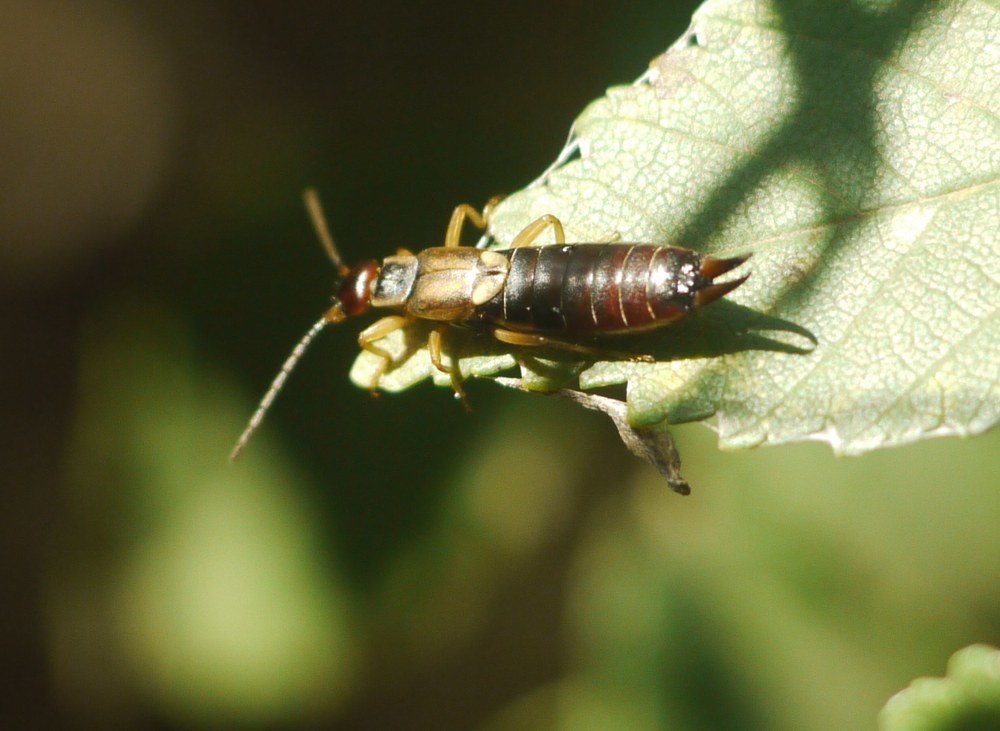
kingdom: Animalia
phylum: Arthropoda
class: Insecta
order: Dermaptera
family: Forficulidae
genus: Forficula
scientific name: Forficula
